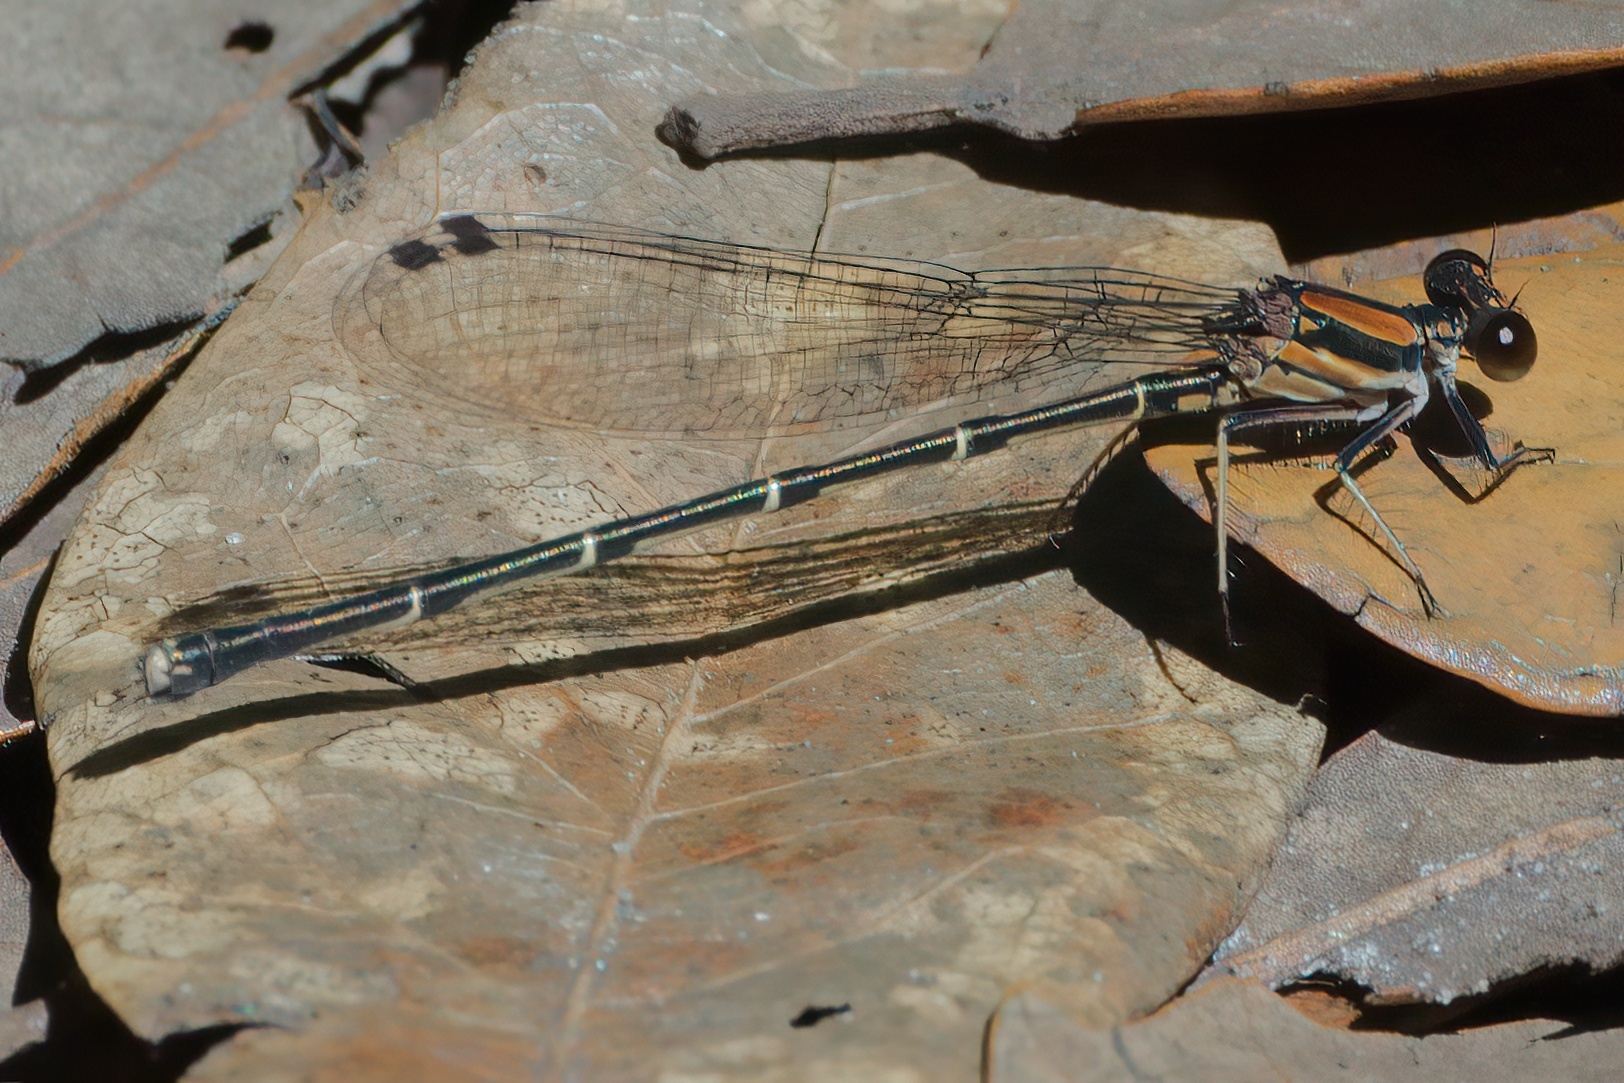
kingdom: Animalia
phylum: Arthropoda
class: Insecta
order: Odonata
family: Coenagrionidae
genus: Argia
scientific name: Argia tibialis
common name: Blue-tipped dancer
